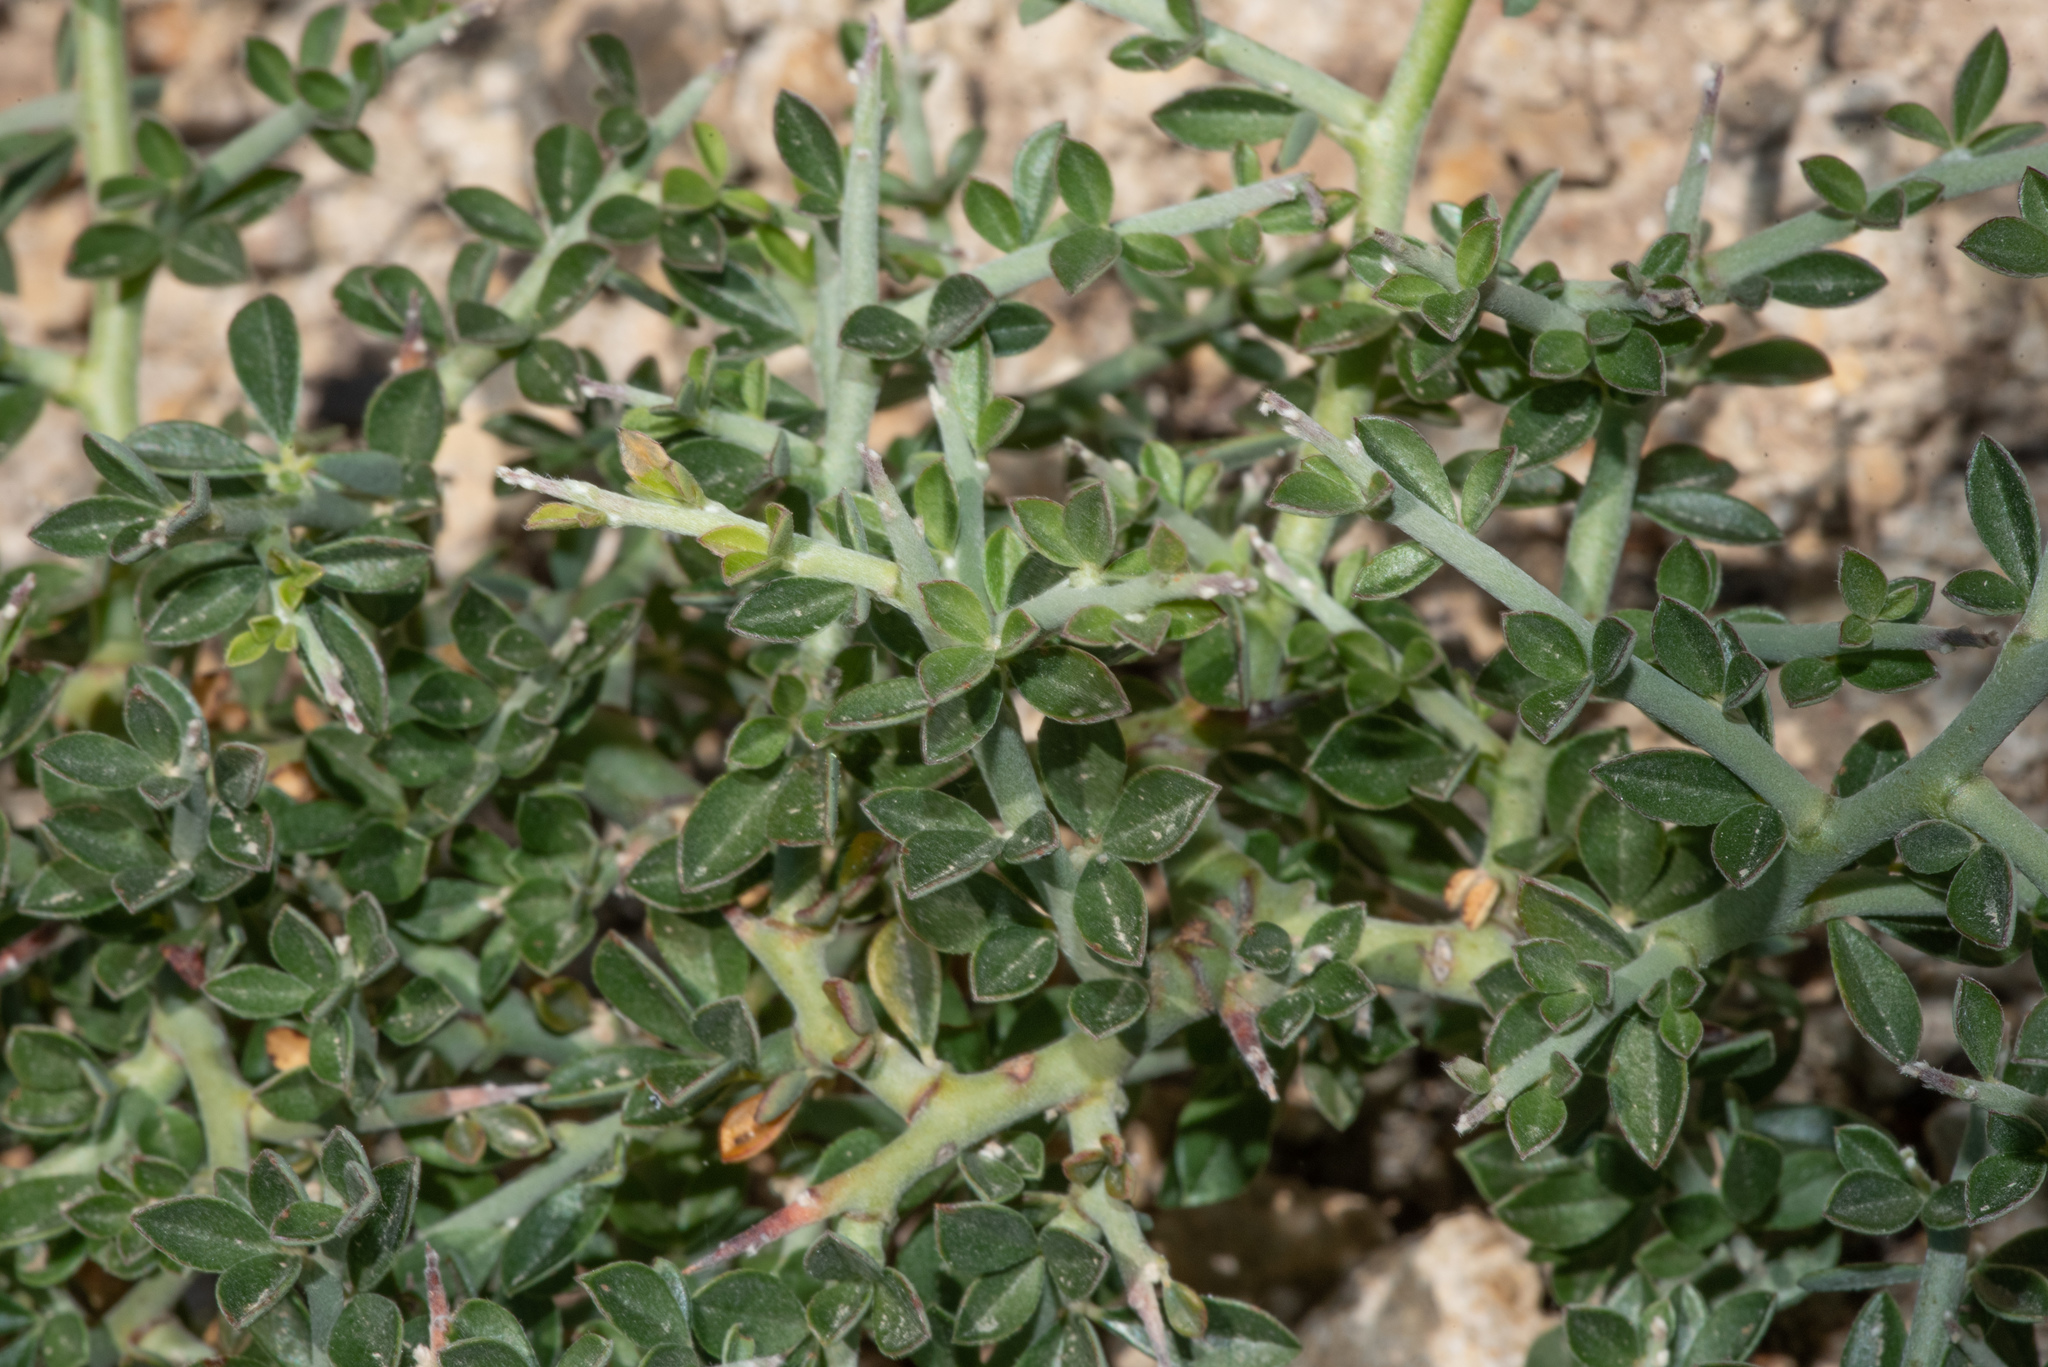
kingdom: Plantae
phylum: Tracheophyta
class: Magnoliopsida
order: Fabales
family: Fabaceae
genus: Pickeringia
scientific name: Pickeringia montana
